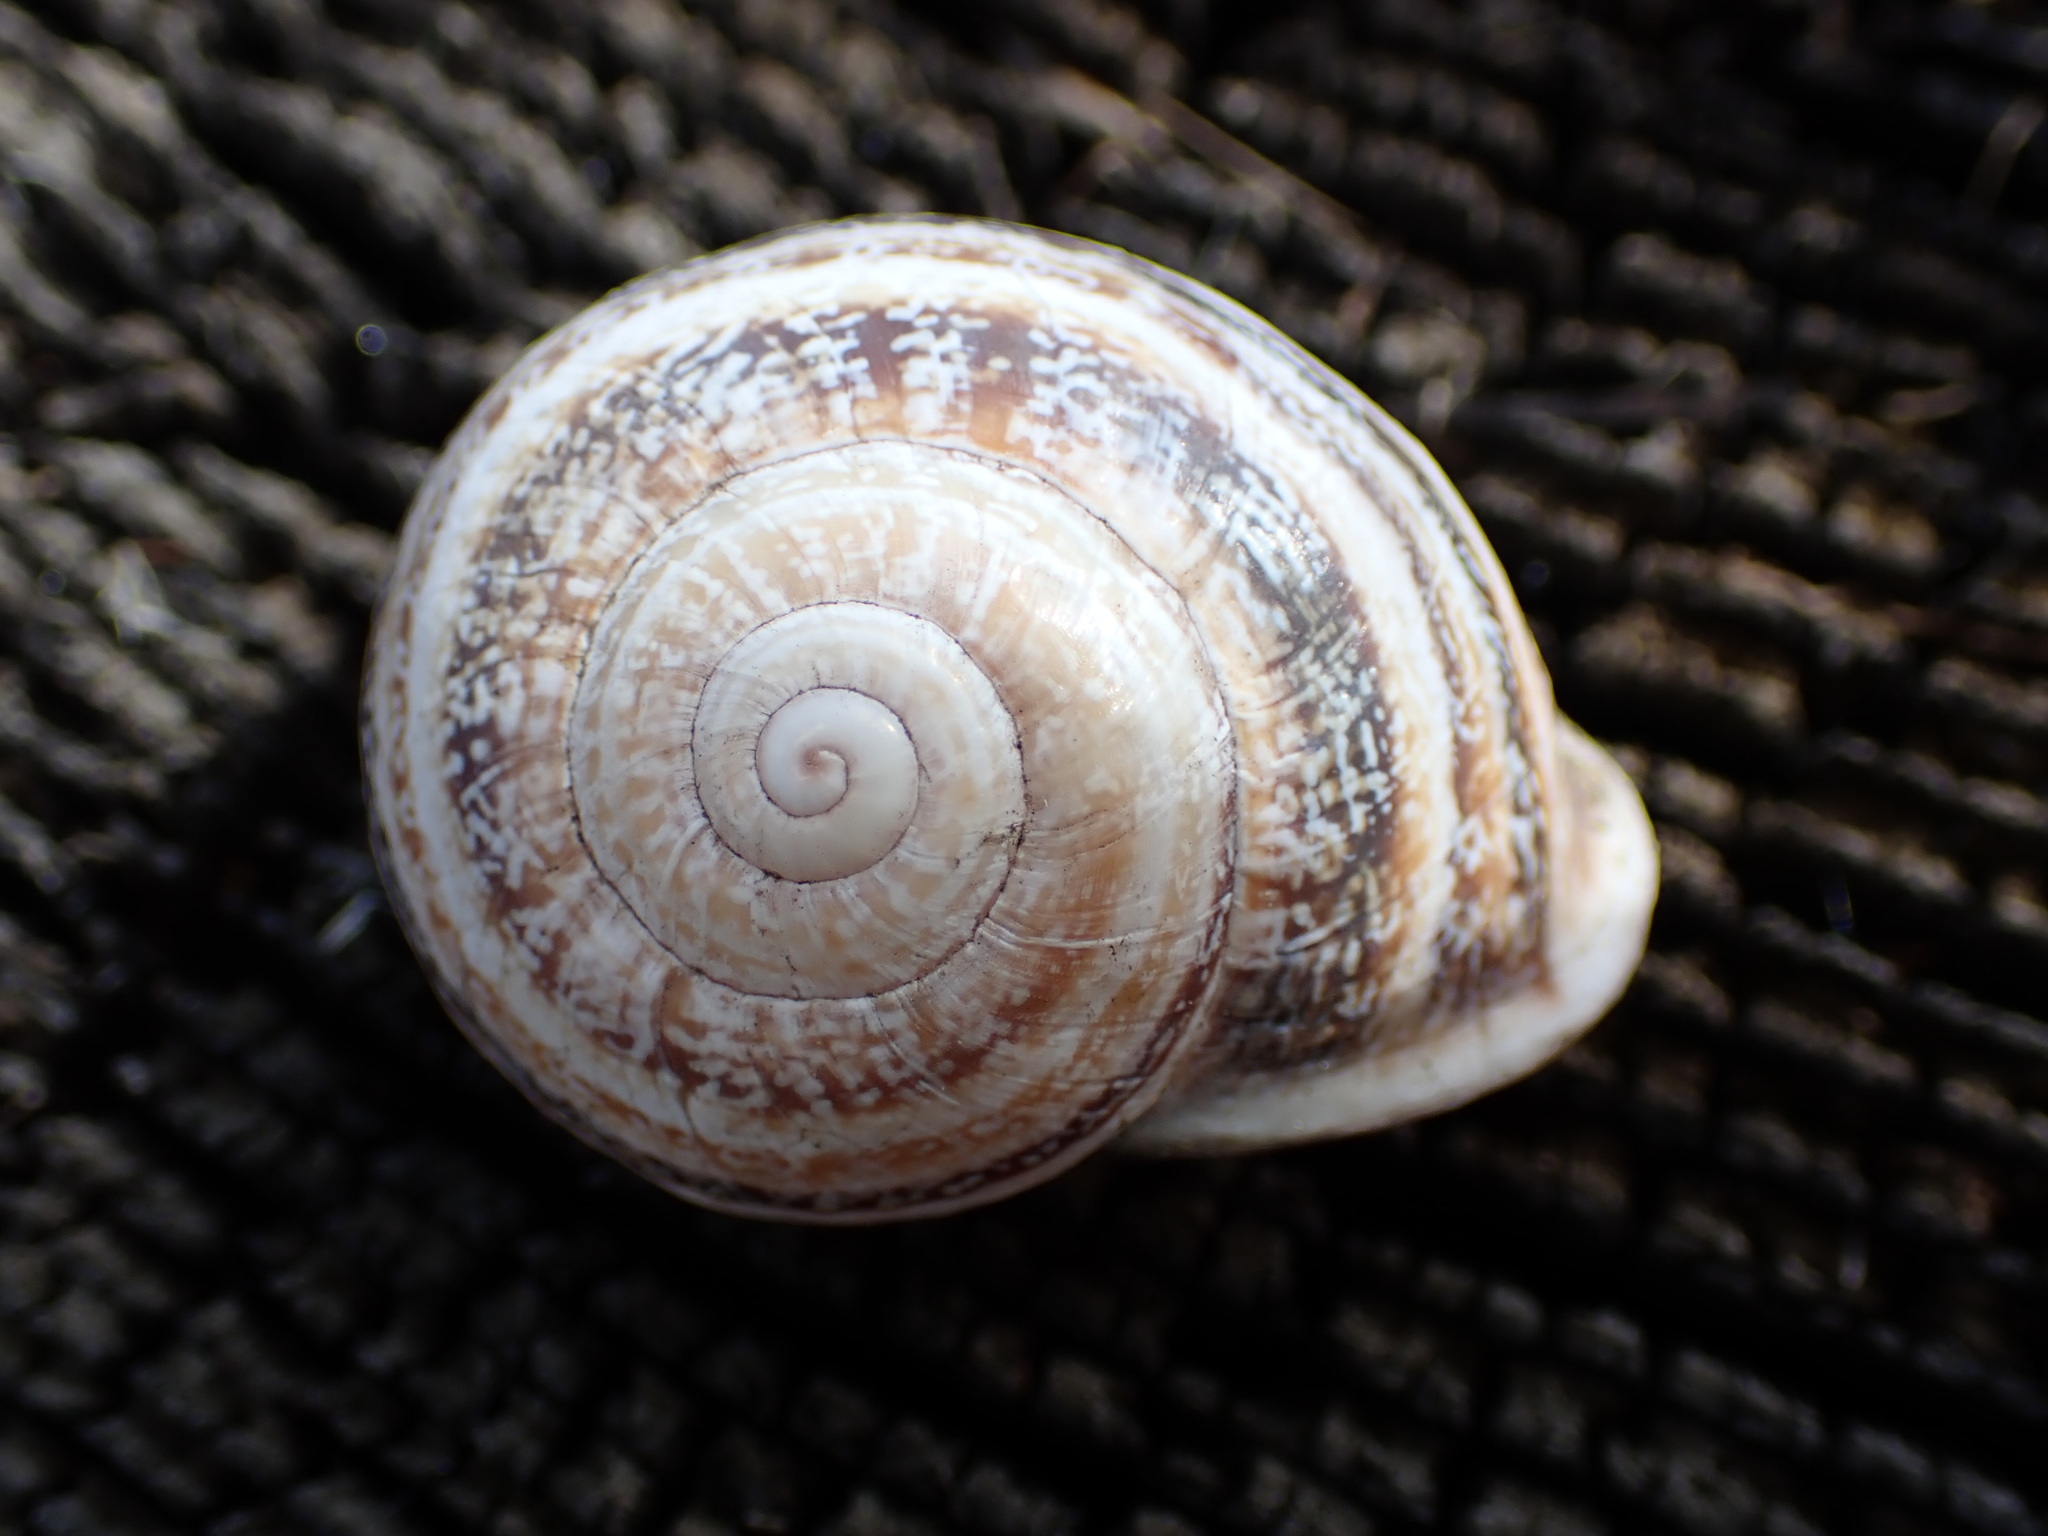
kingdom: Animalia
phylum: Mollusca
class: Gastropoda
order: Stylommatophora
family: Helicidae
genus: Otala
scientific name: Otala lactea
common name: Milk snail
